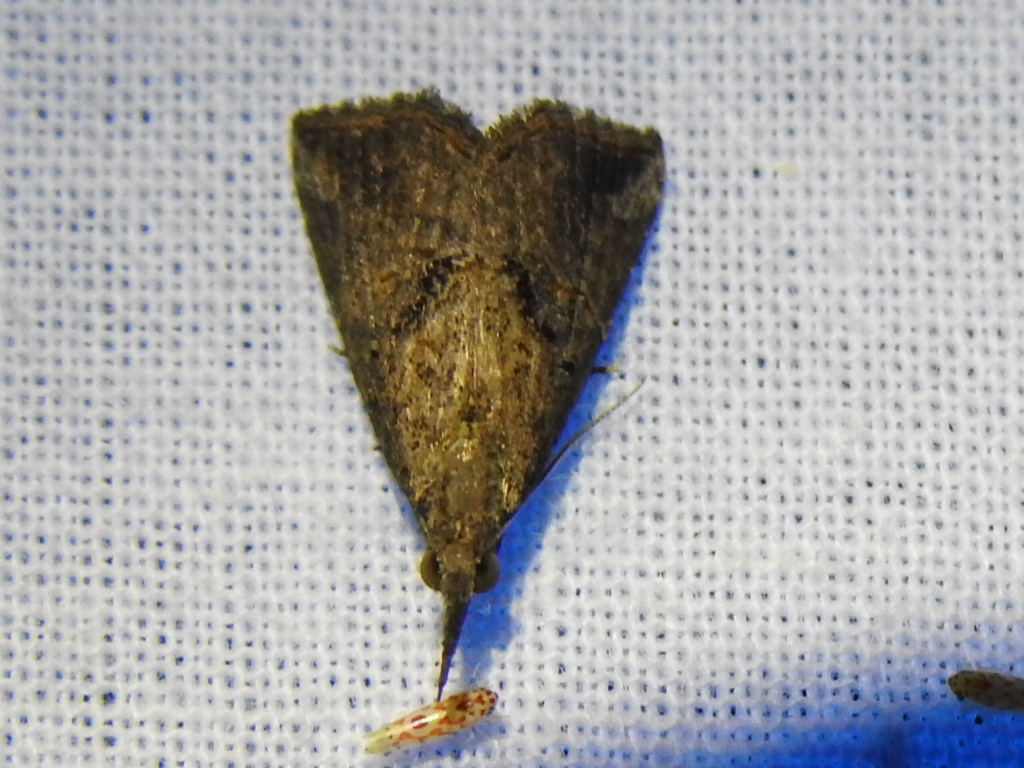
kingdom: Animalia
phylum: Arthropoda
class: Insecta
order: Lepidoptera
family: Erebidae
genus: Hypena
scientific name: Hypena minualis
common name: Sooty snout
